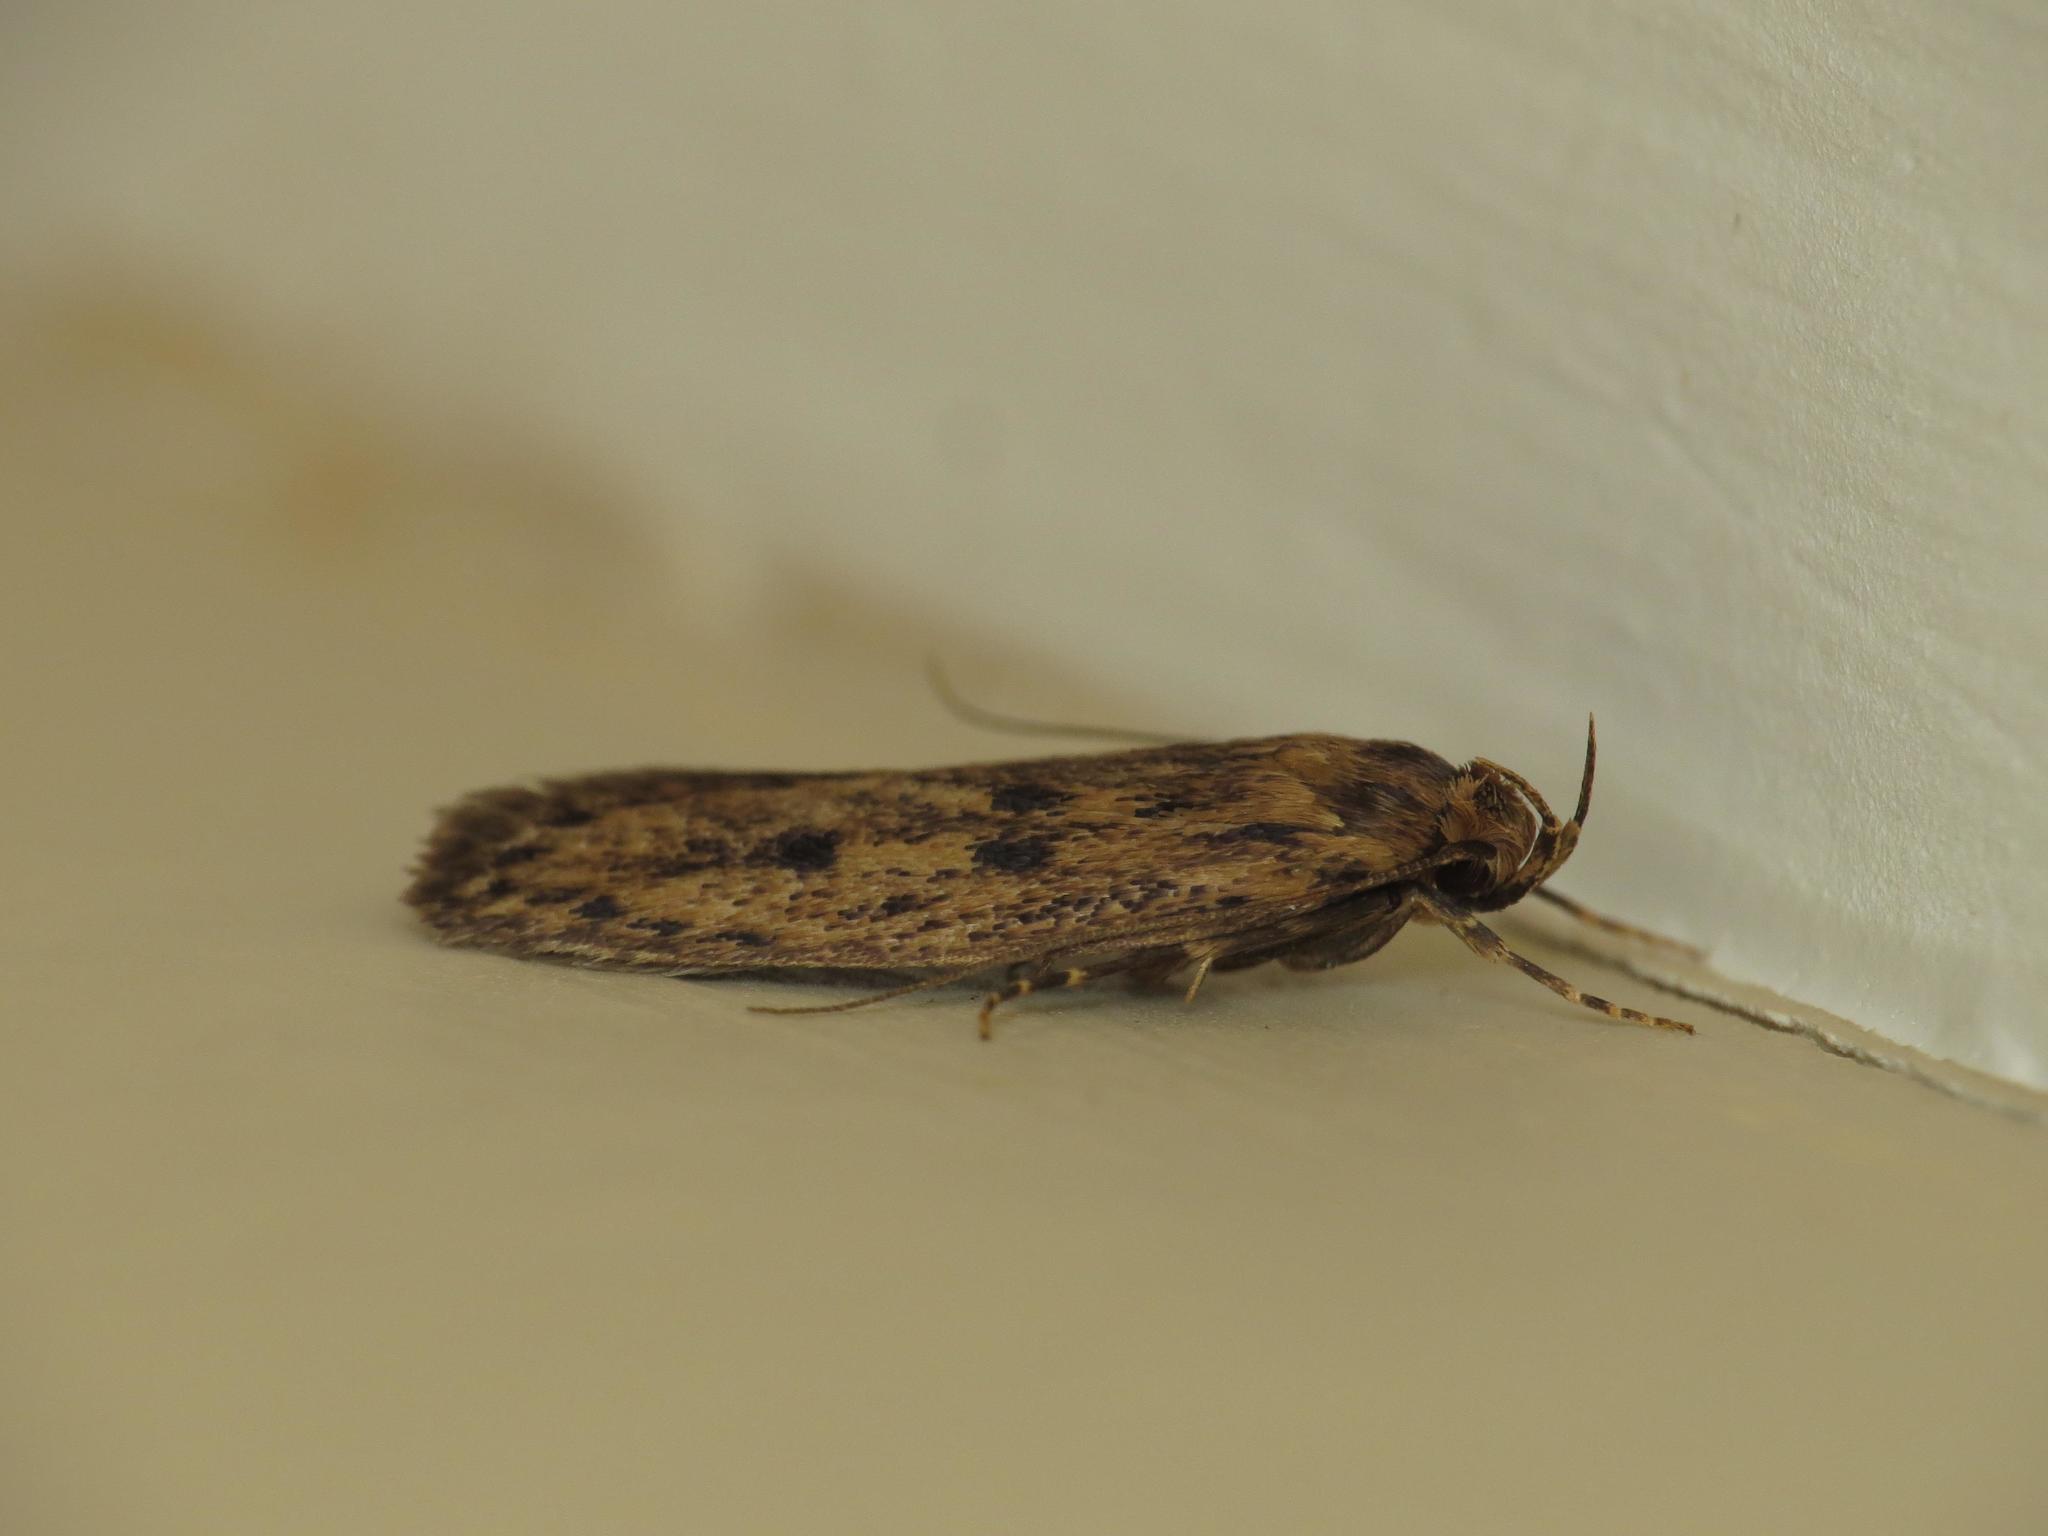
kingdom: Animalia
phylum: Arthropoda
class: Insecta
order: Lepidoptera
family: Oecophoridae
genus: Hofmannophila
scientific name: Hofmannophila pseudospretella
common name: Brown house moth
